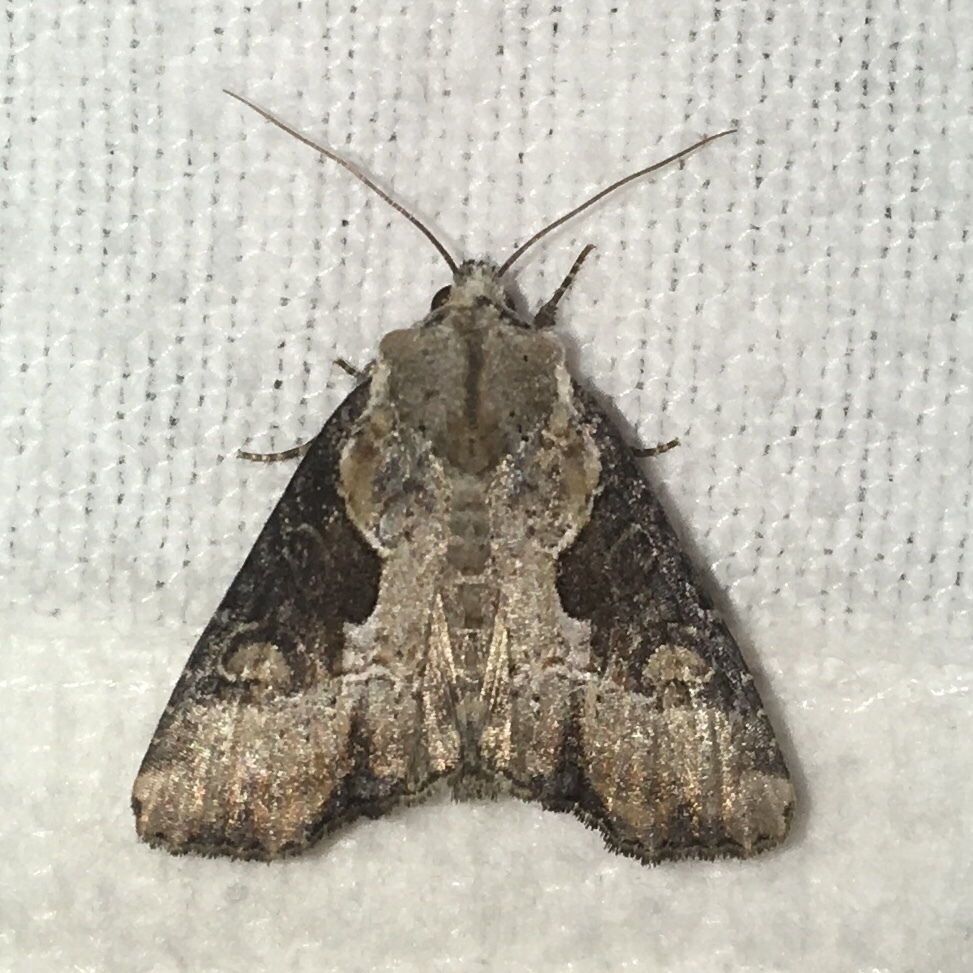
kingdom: Animalia
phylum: Arthropoda
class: Insecta
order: Lepidoptera
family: Noctuidae
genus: Lateroligia
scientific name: Lateroligia ophiogramma
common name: Double lobed
